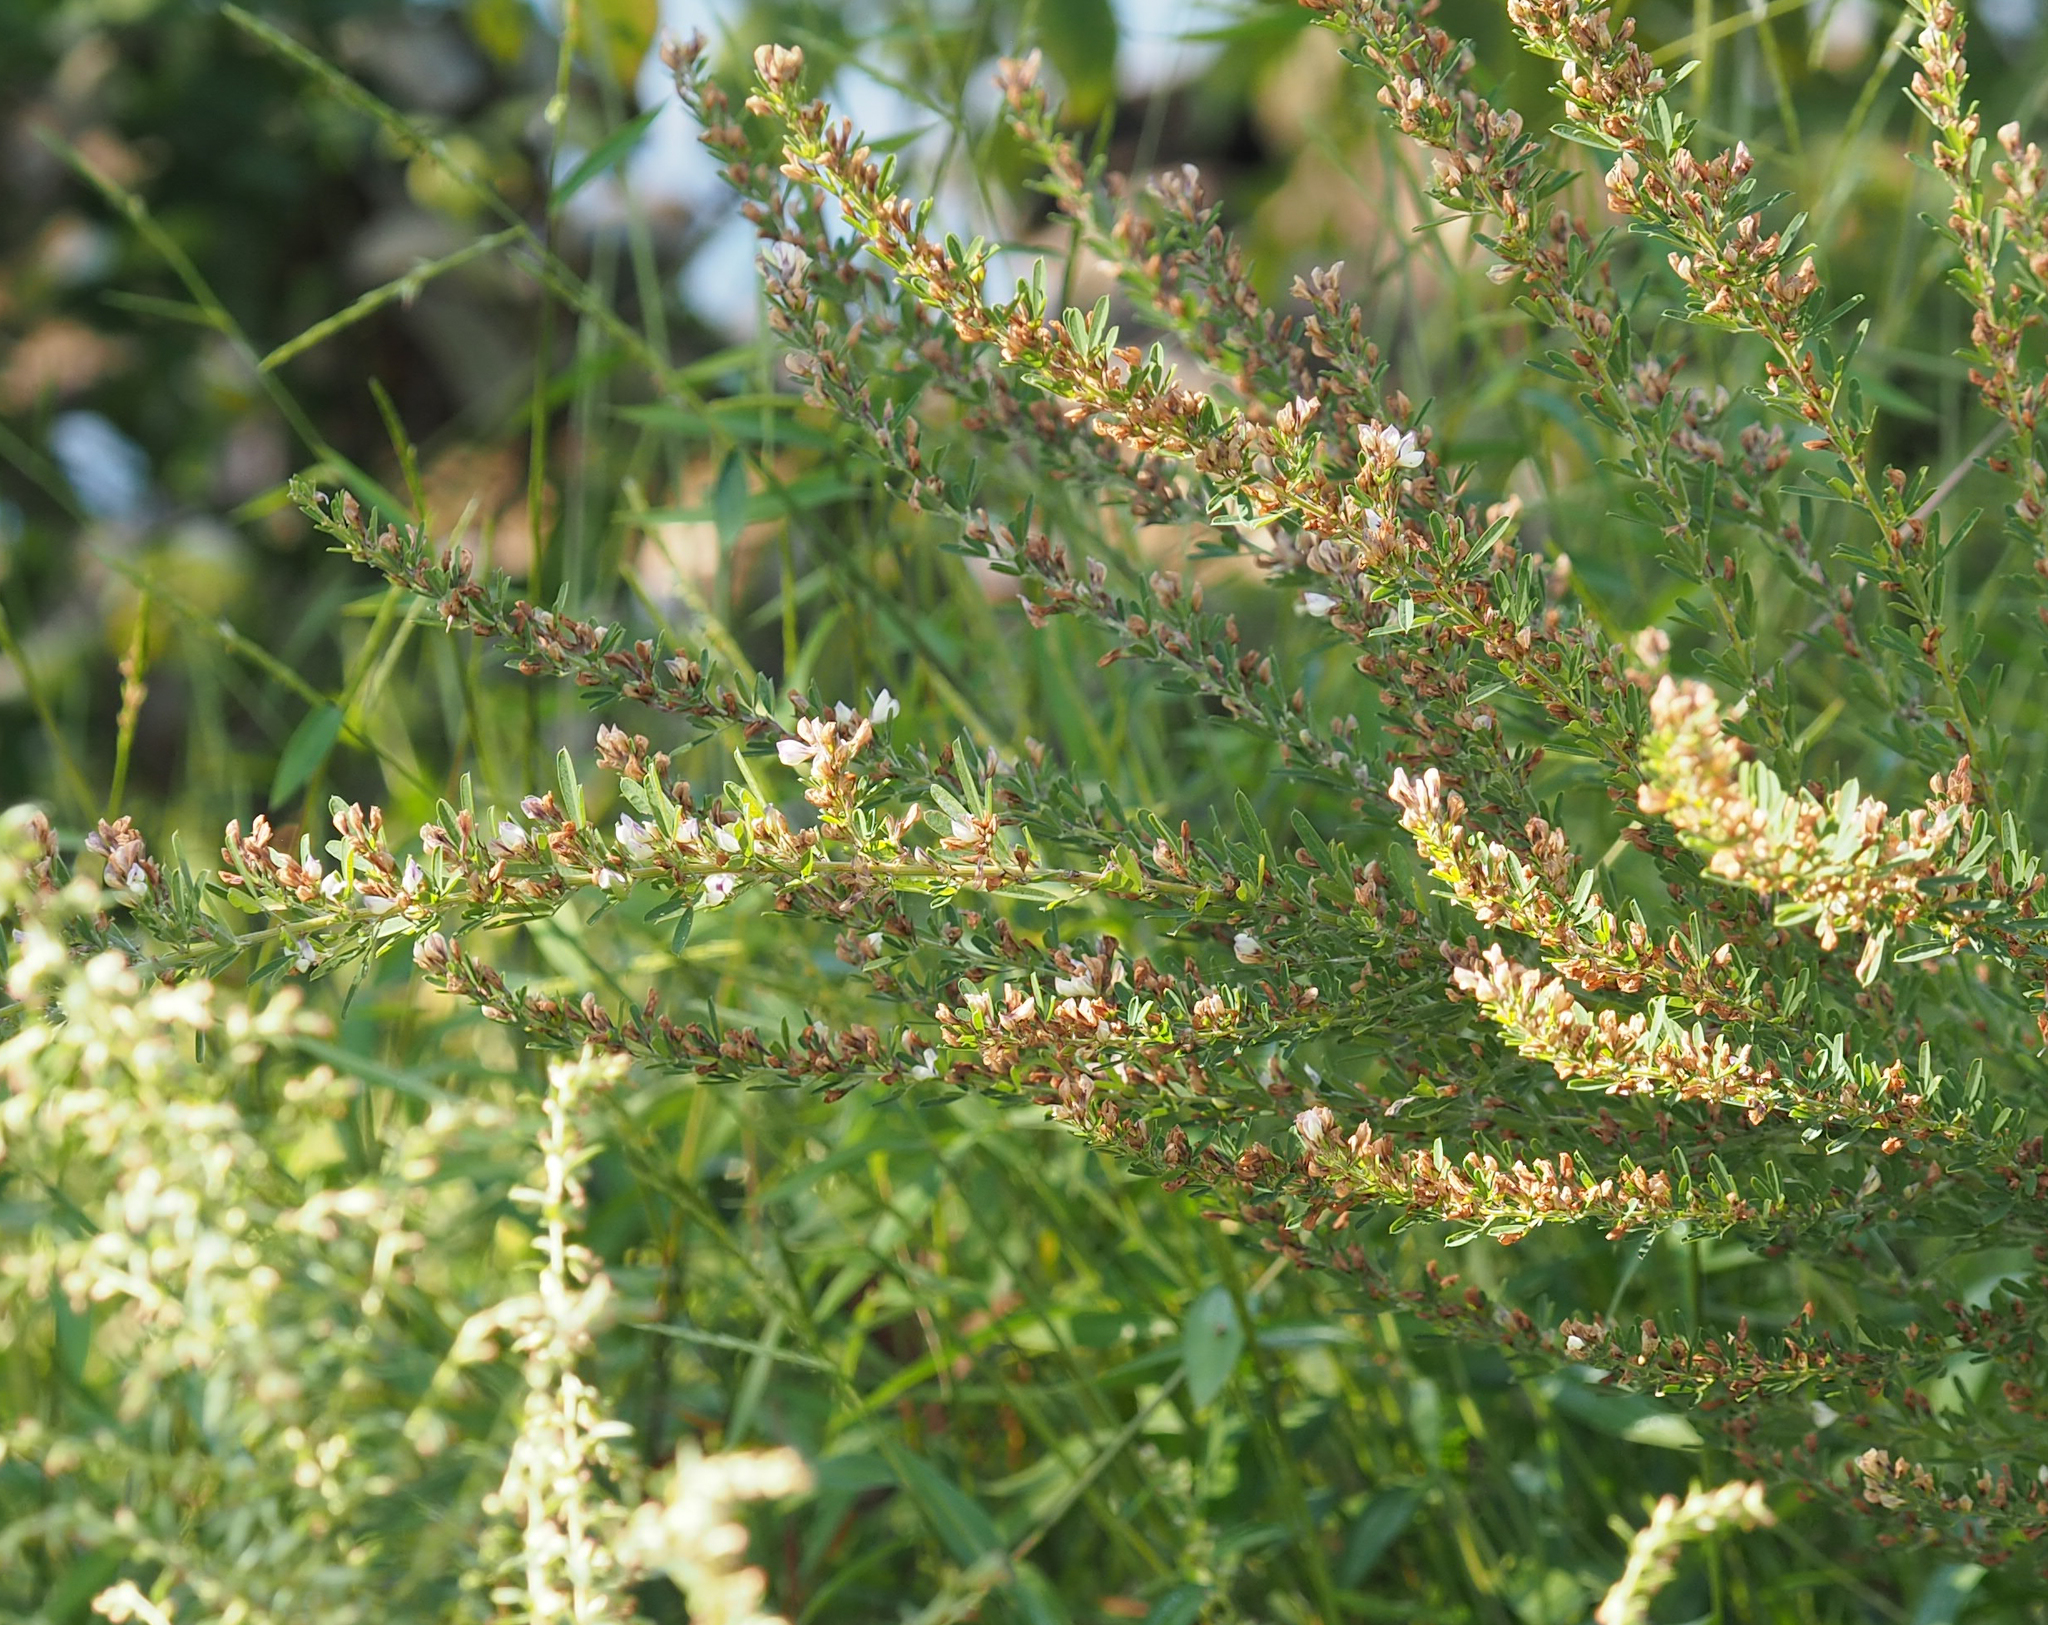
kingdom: Plantae
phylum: Tracheophyta
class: Magnoliopsida
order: Fabales
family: Fabaceae
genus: Lespedeza
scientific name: Lespedeza cuneata
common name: Chinese bush-clover
